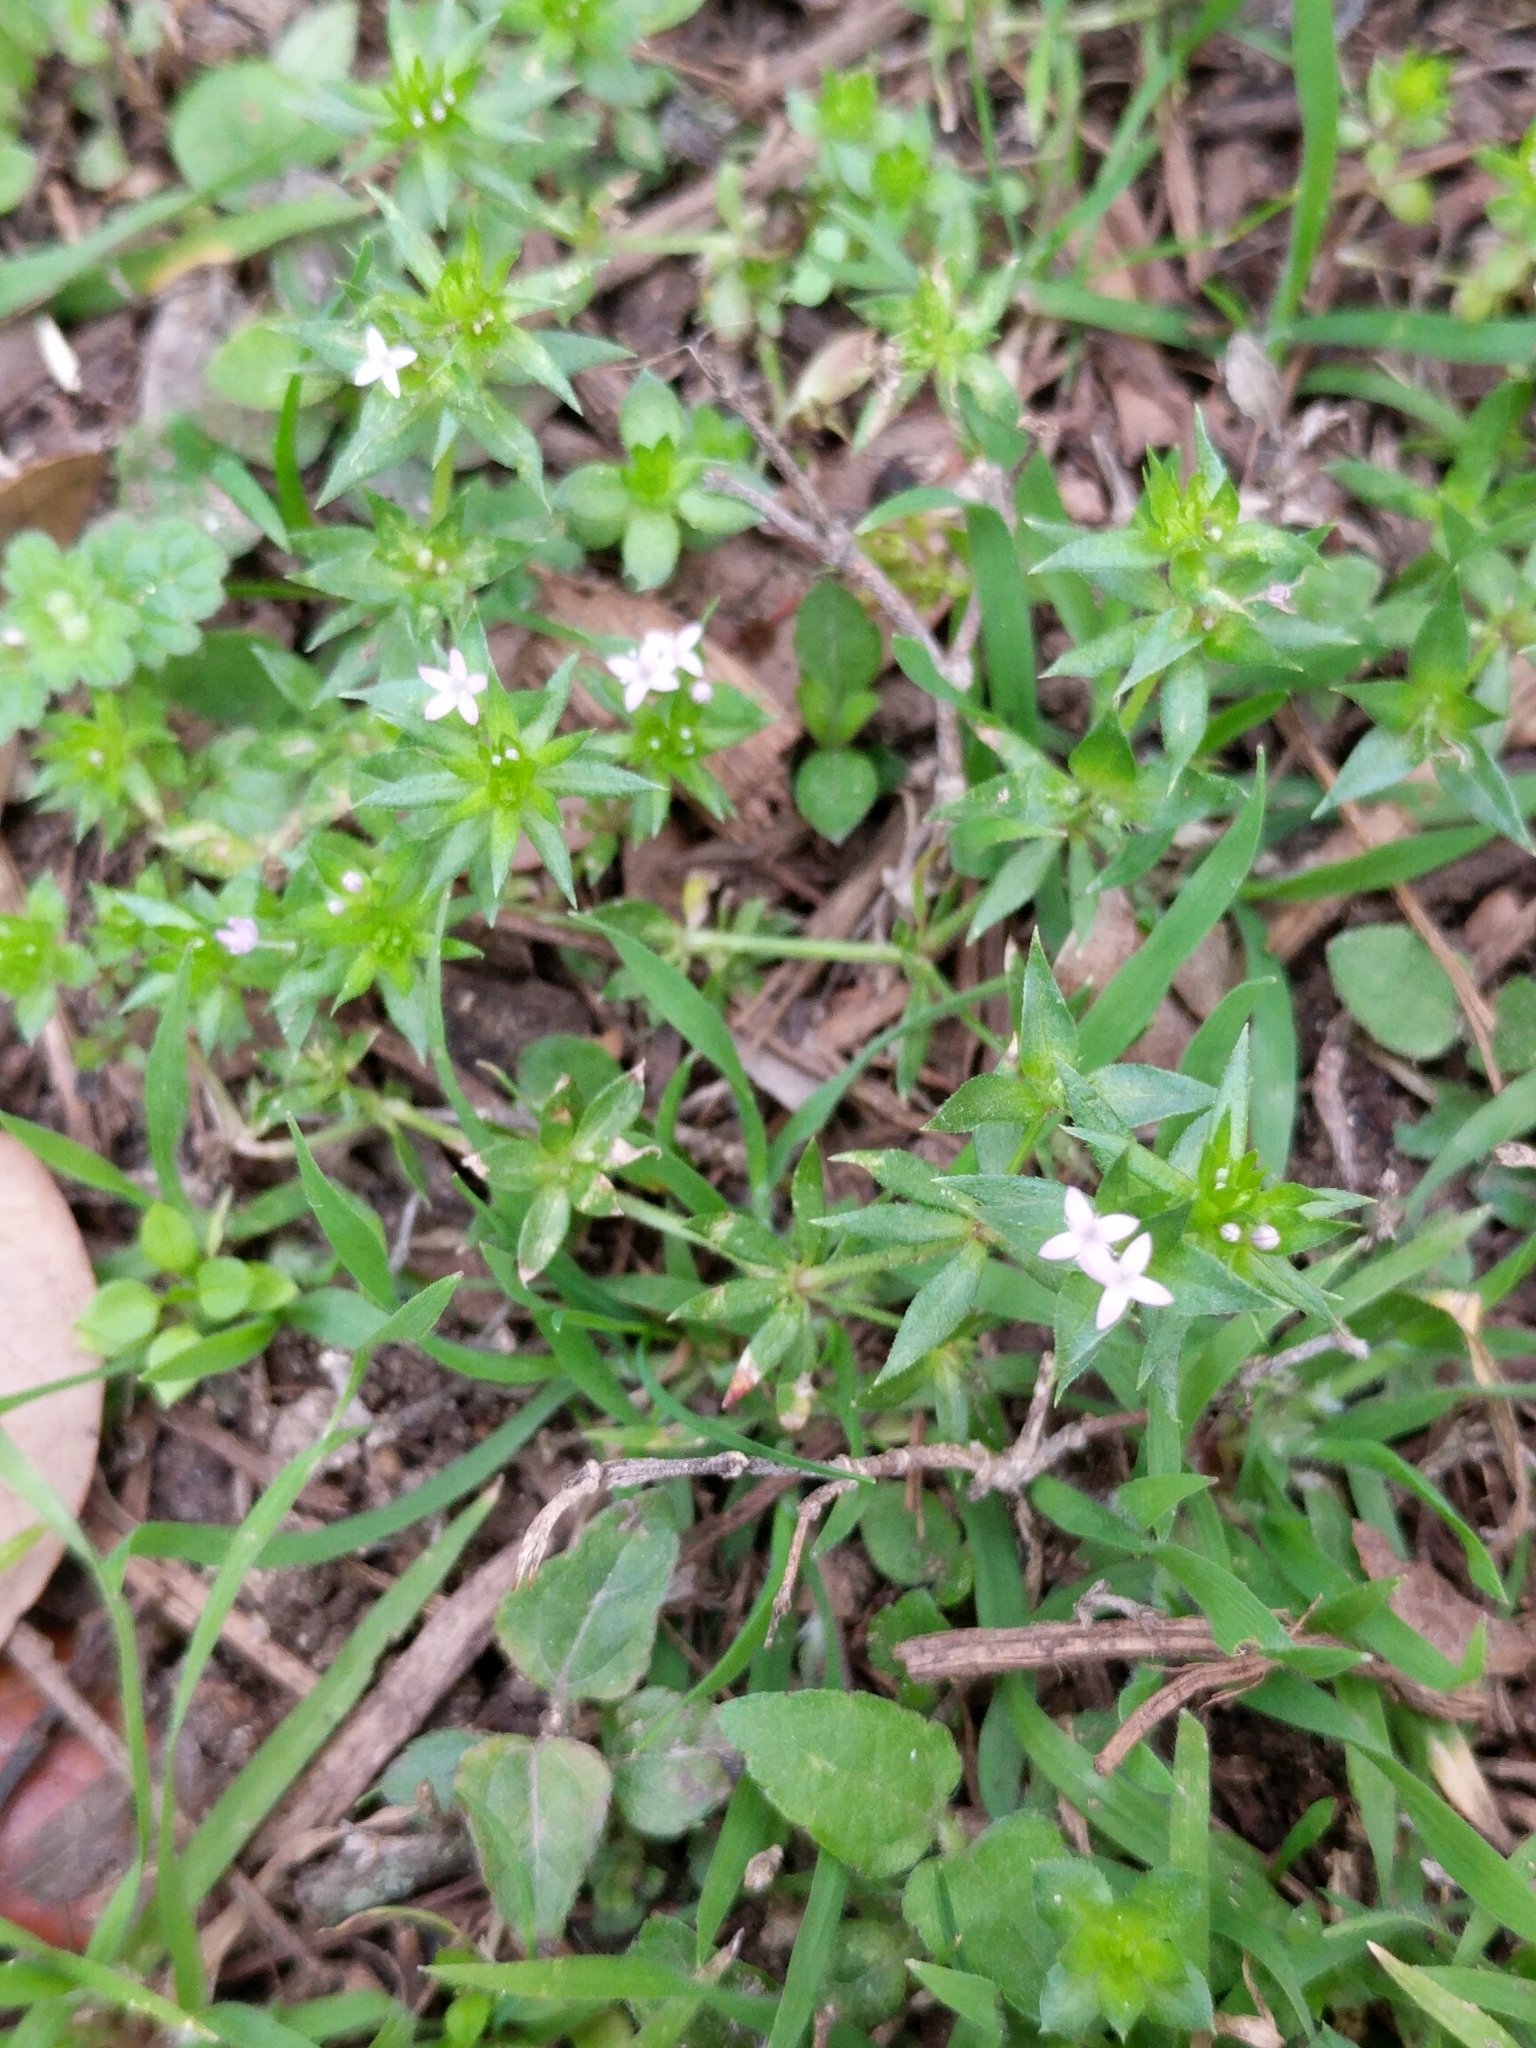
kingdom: Plantae
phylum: Tracheophyta
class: Magnoliopsida
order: Gentianales
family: Rubiaceae
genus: Sherardia
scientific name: Sherardia arvensis
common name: Field madder
